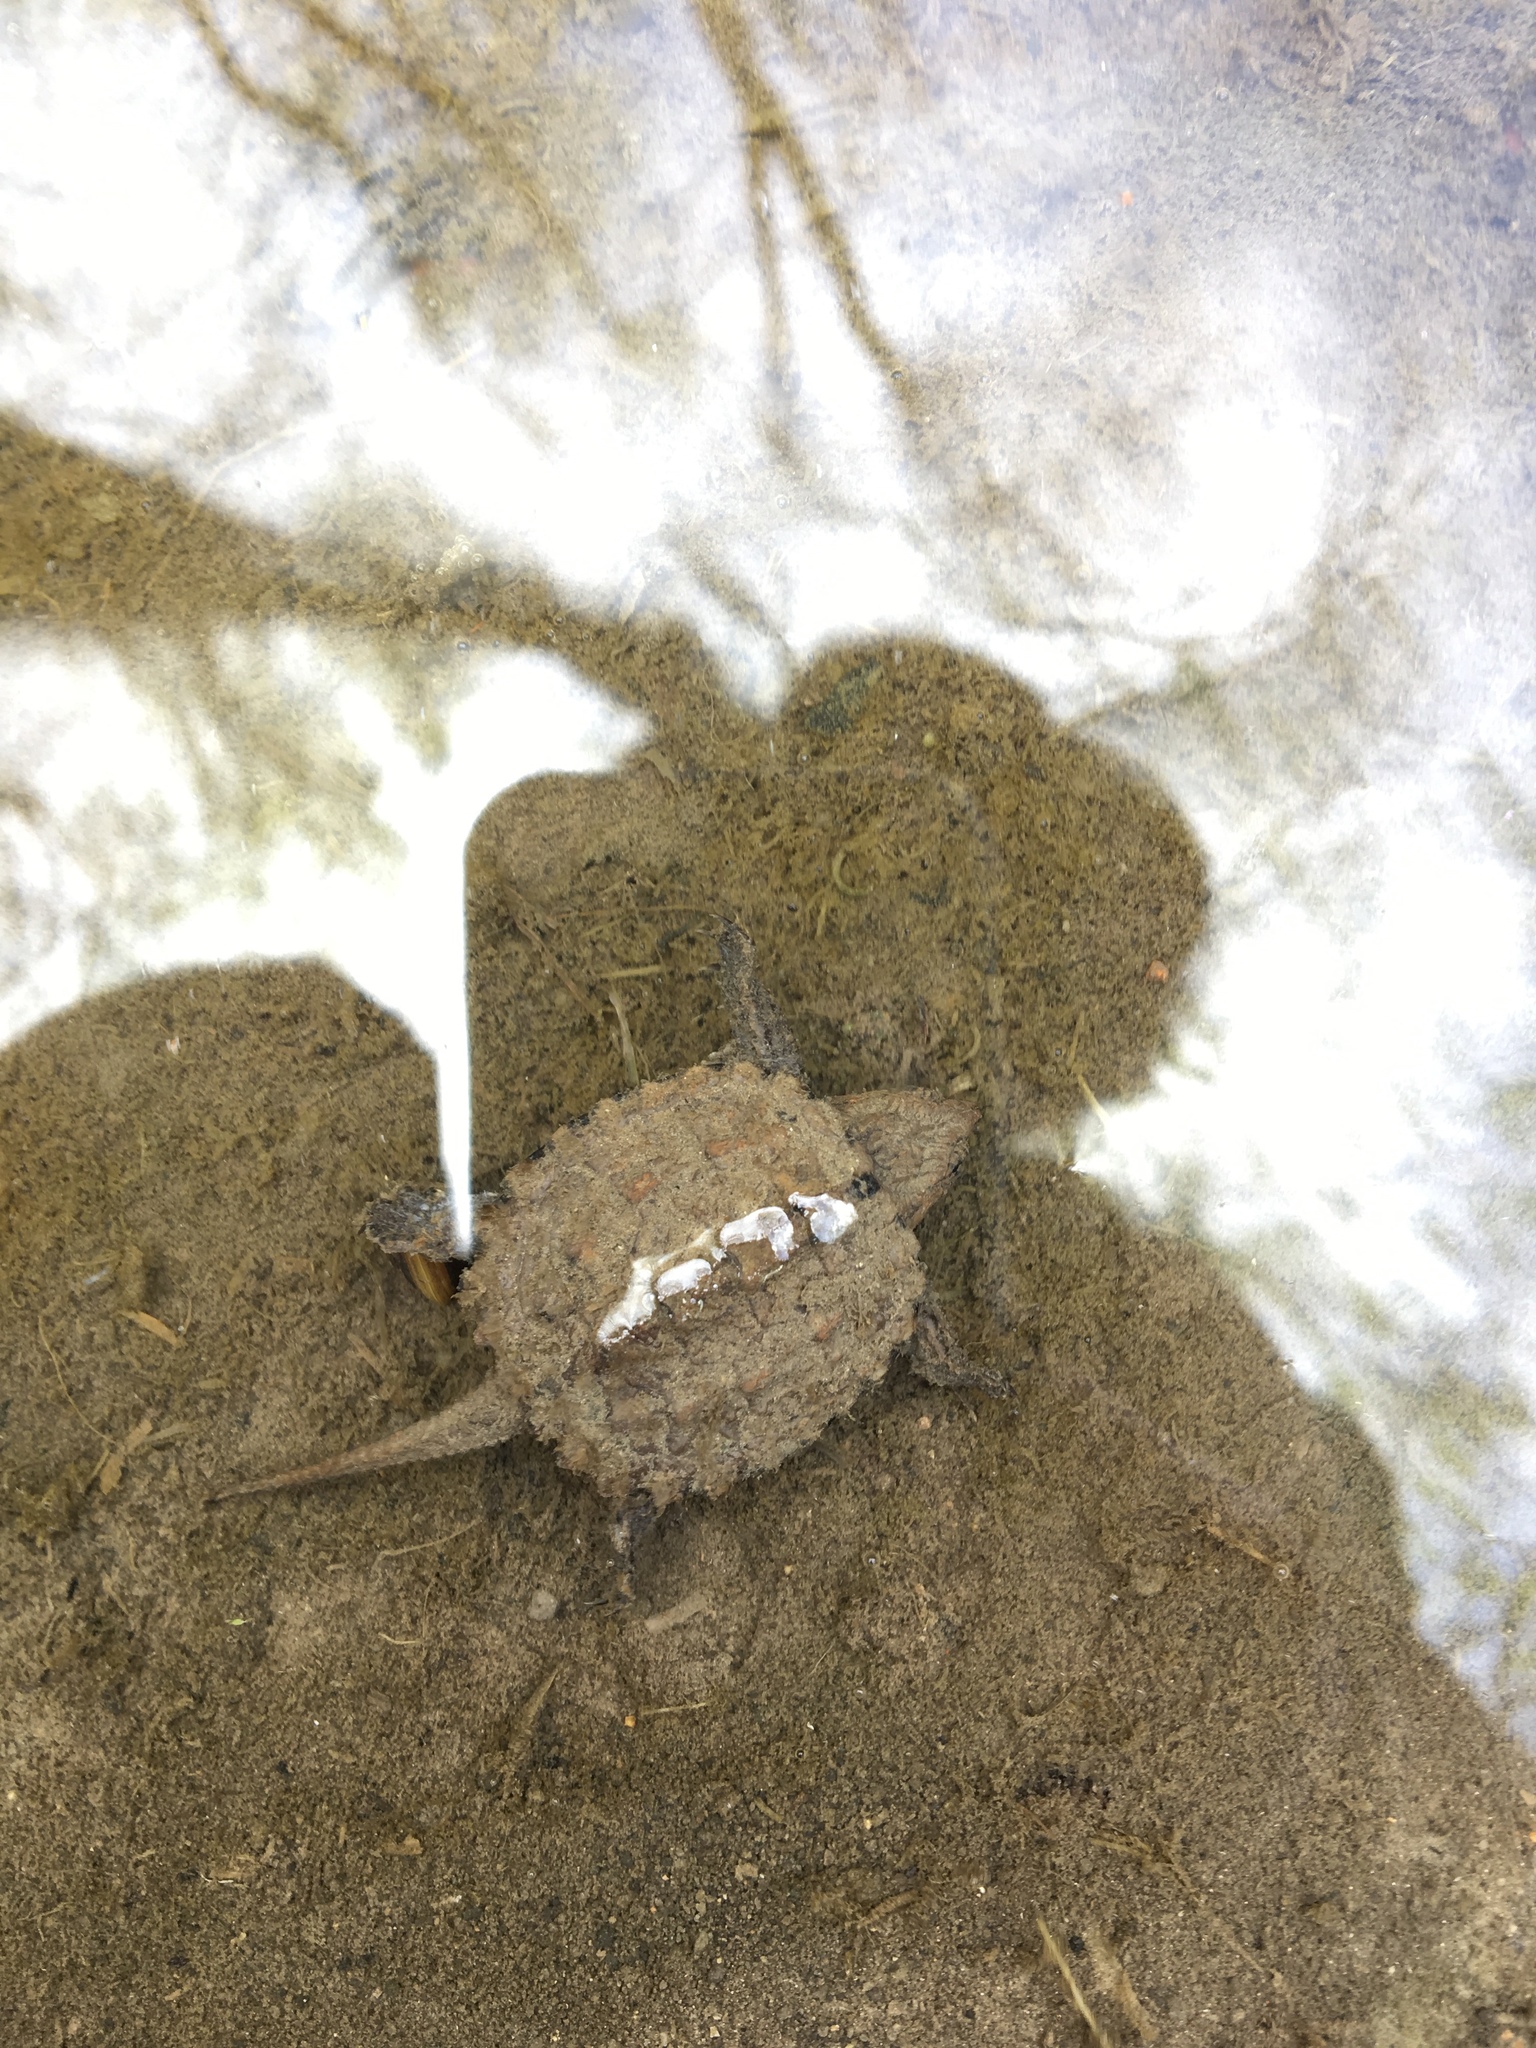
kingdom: Animalia
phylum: Chordata
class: Testudines
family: Chelydridae
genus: Chelydra
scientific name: Chelydra serpentina
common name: Common snapping turtle
